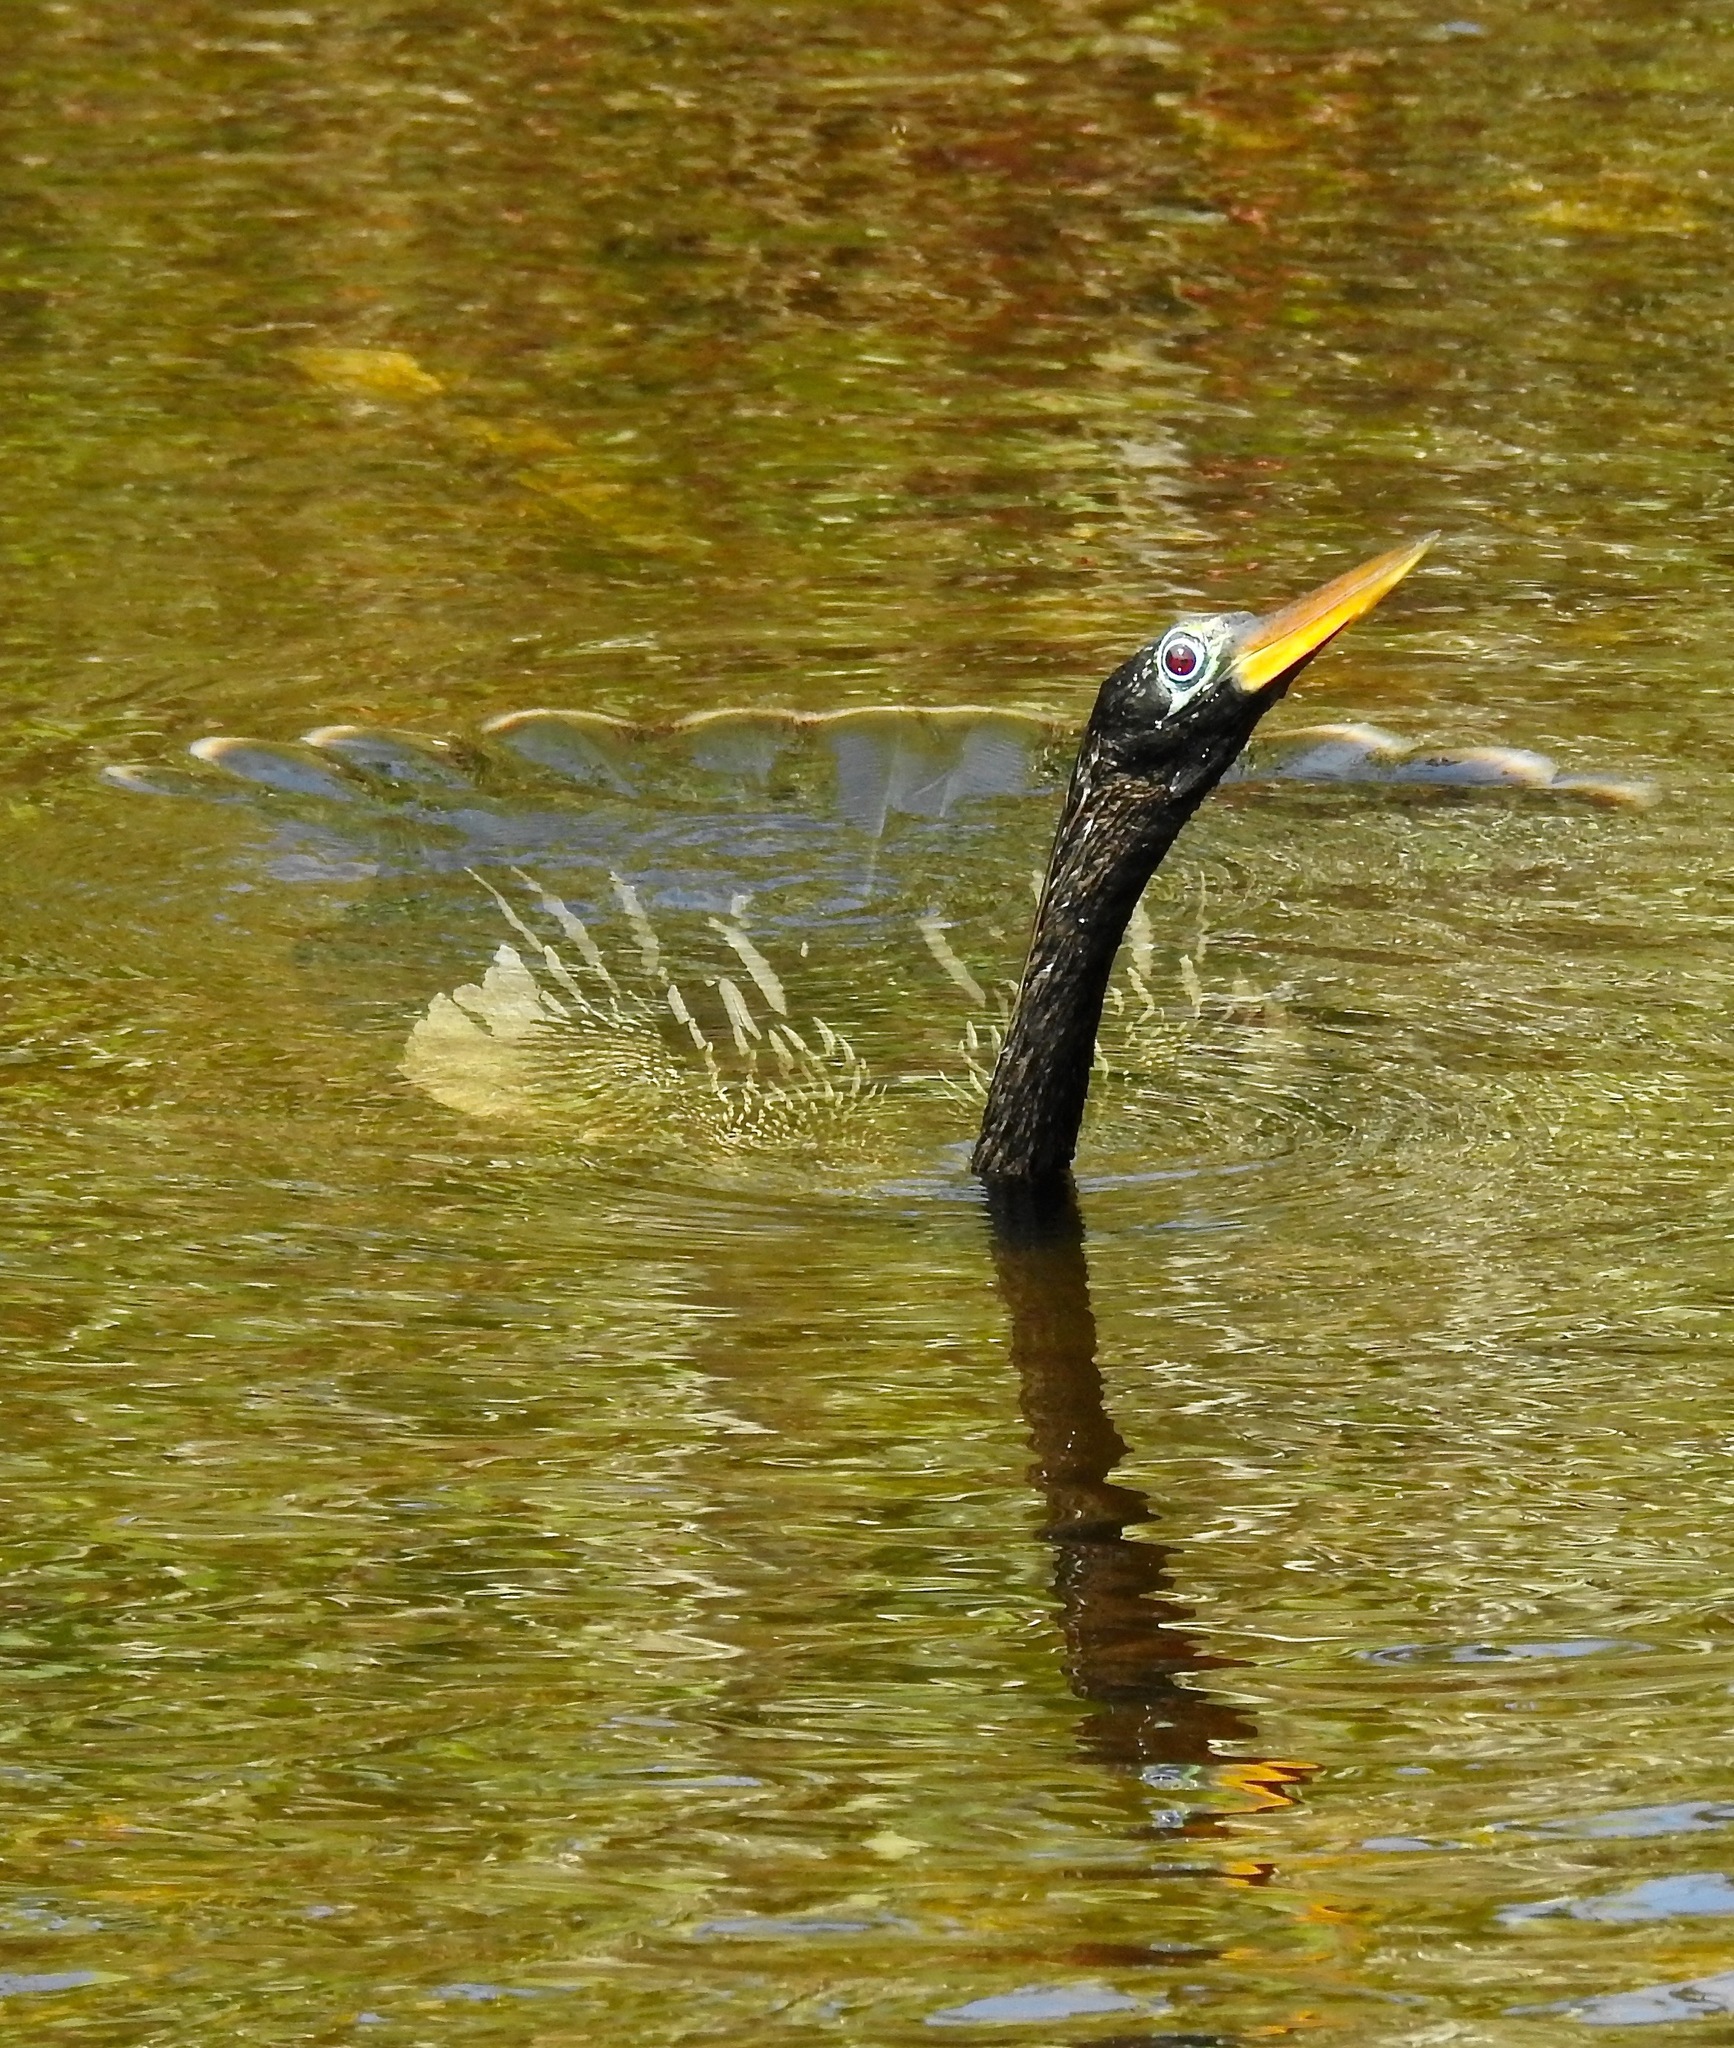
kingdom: Animalia
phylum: Chordata
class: Aves
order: Suliformes
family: Anhingidae
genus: Anhinga
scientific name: Anhinga anhinga
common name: Anhinga
